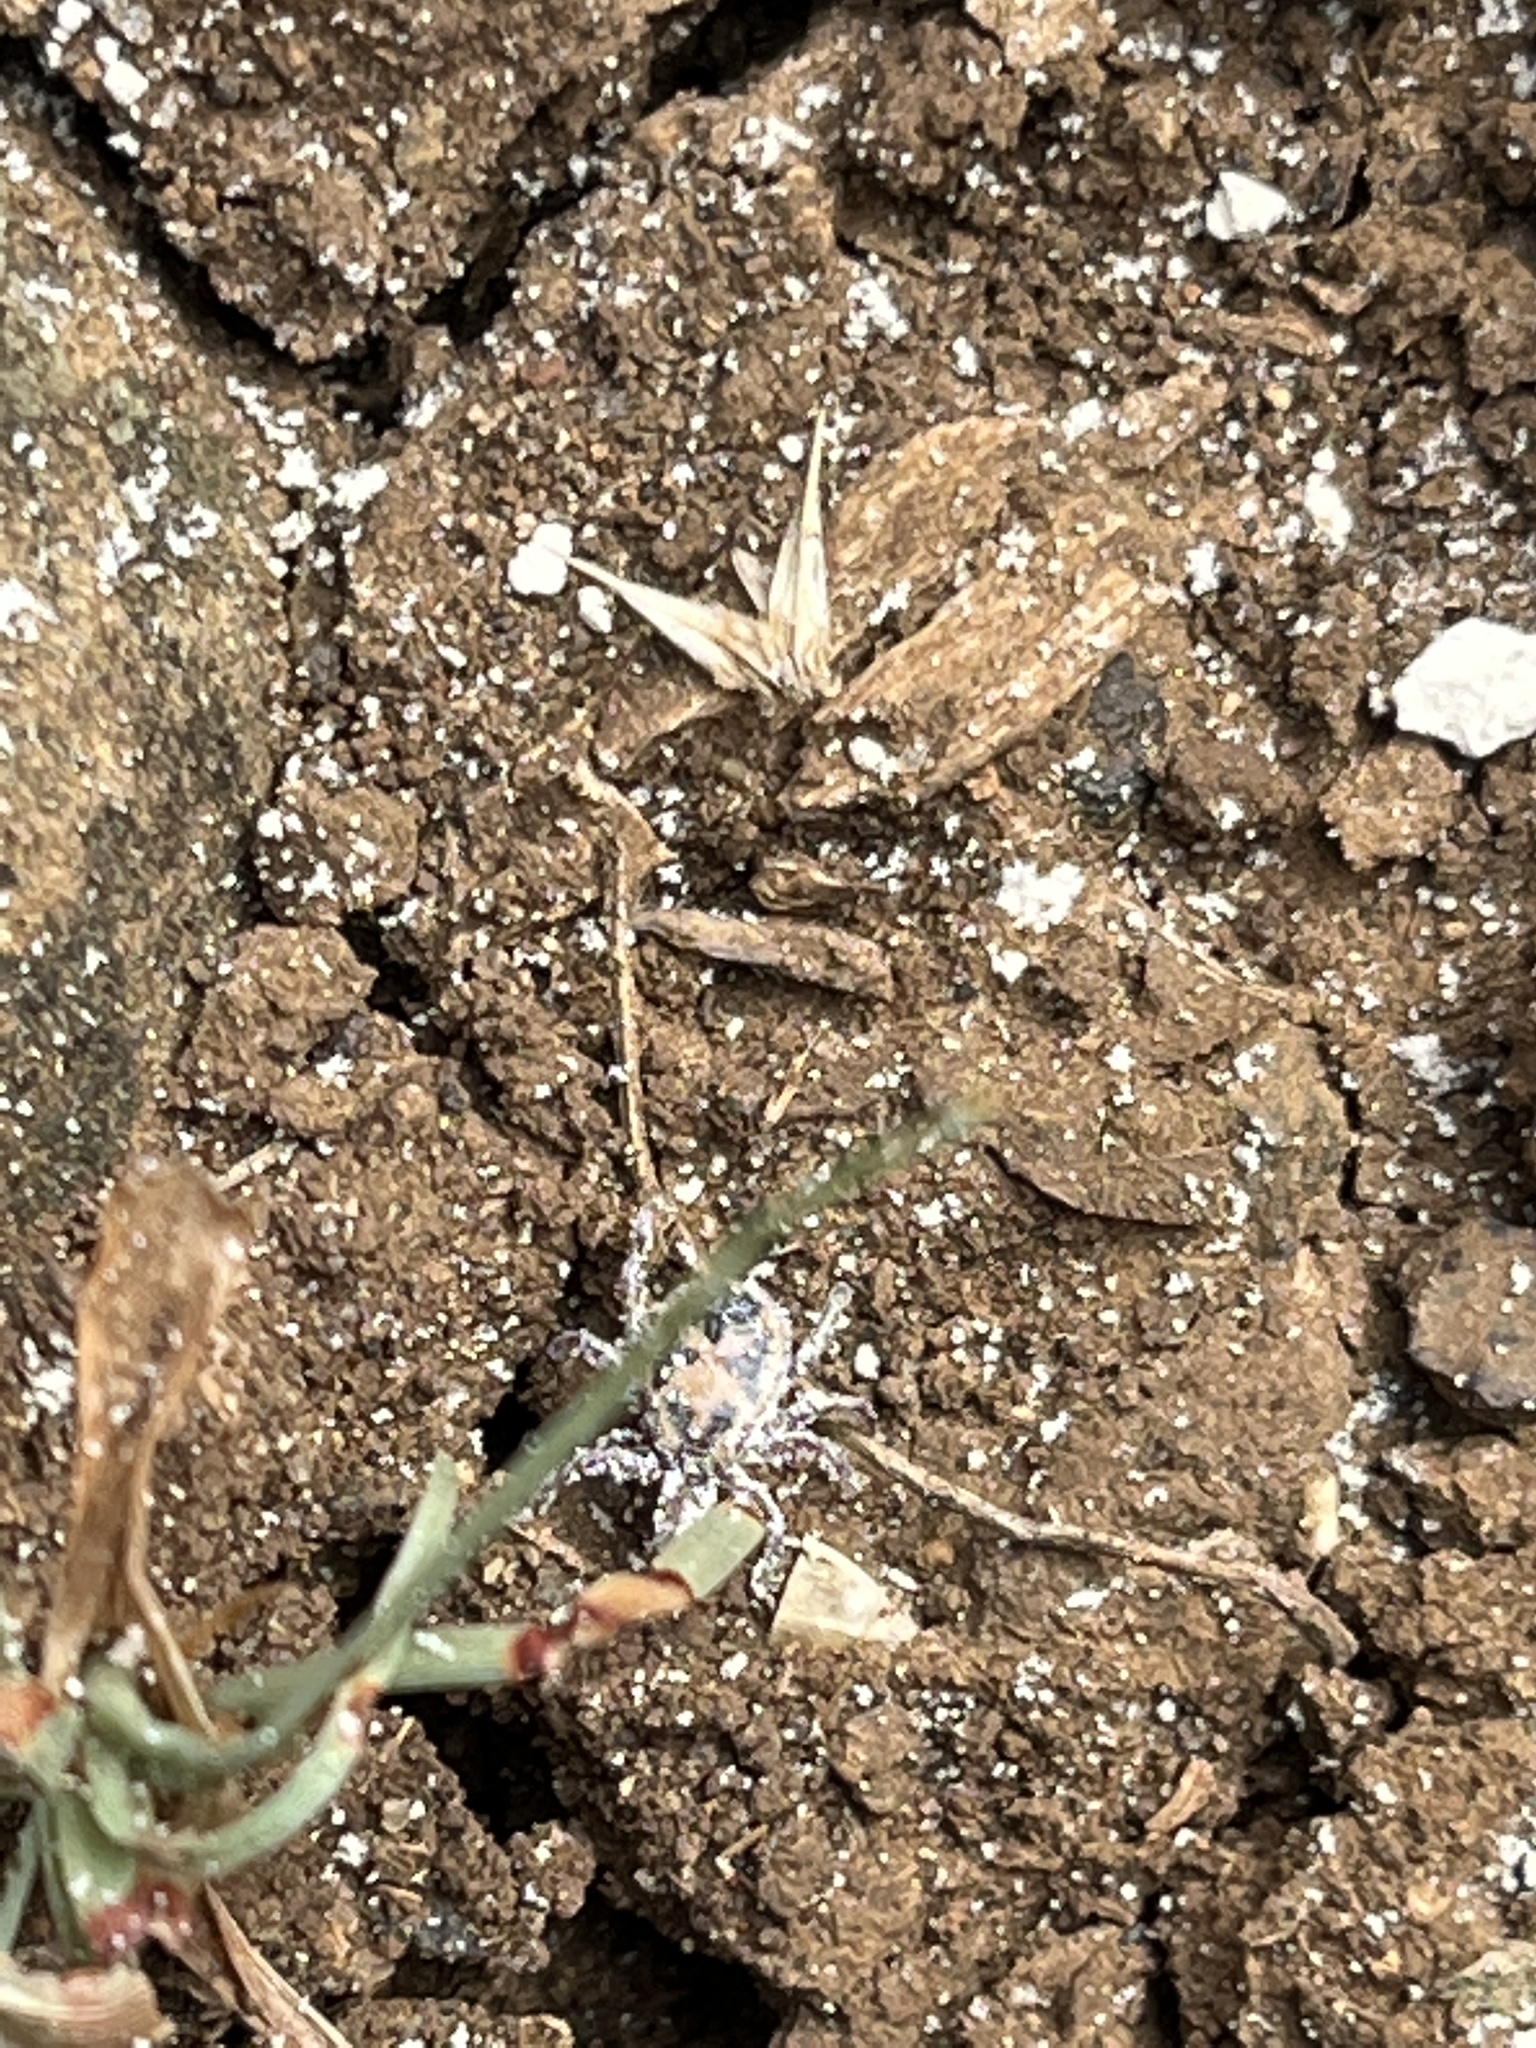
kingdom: Animalia
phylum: Arthropoda
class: Arachnida
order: Ixodida
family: Ixodidae
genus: Rhipicephalus
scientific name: Rhipicephalus pulchellus
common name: Yellow backed tick
